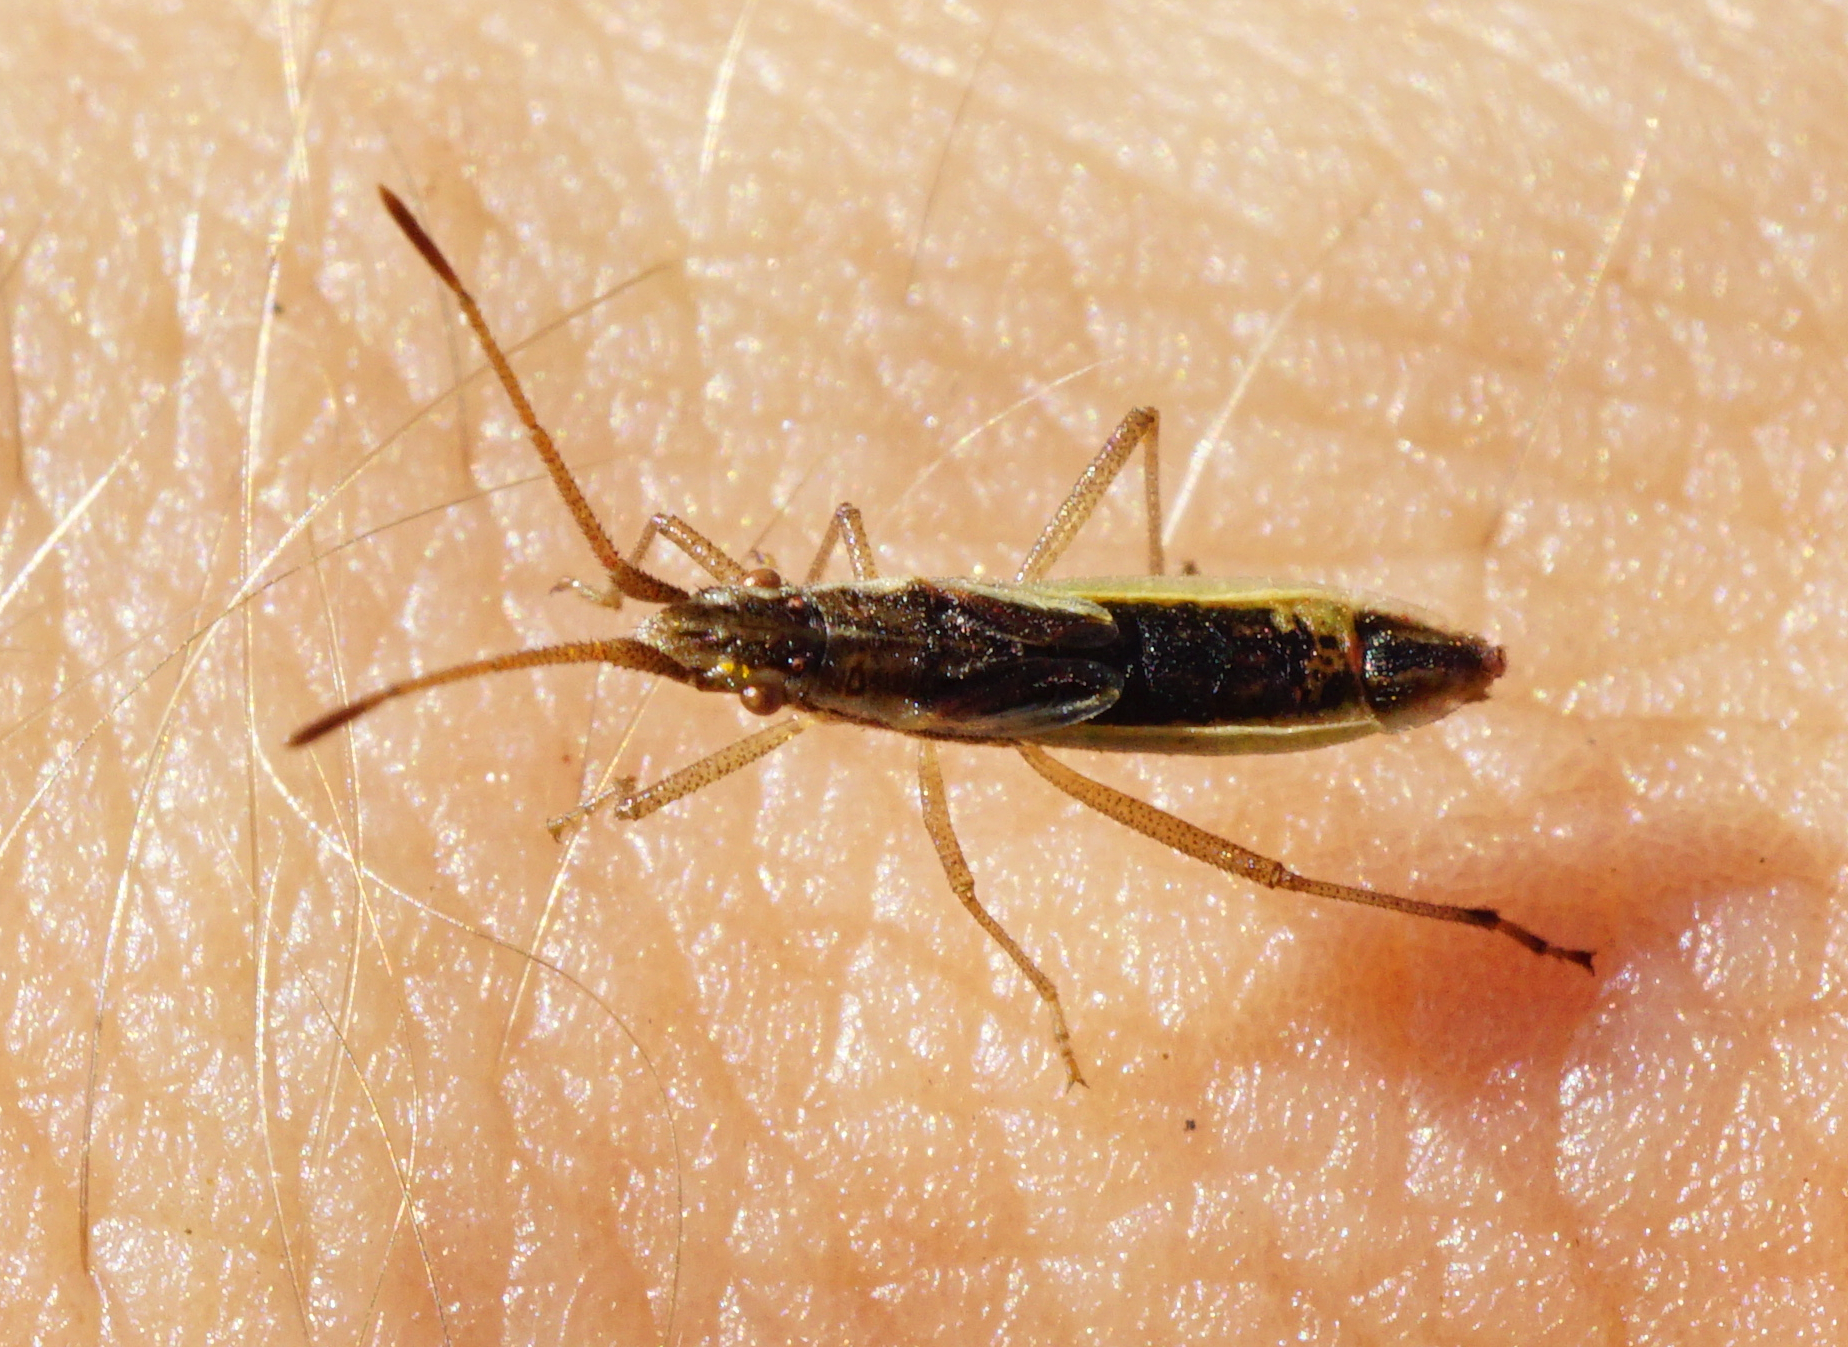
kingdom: Animalia
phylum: Arthropoda
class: Insecta
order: Hemiptera
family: Rhopalidae
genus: Myrmus
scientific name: Myrmus miriformis
